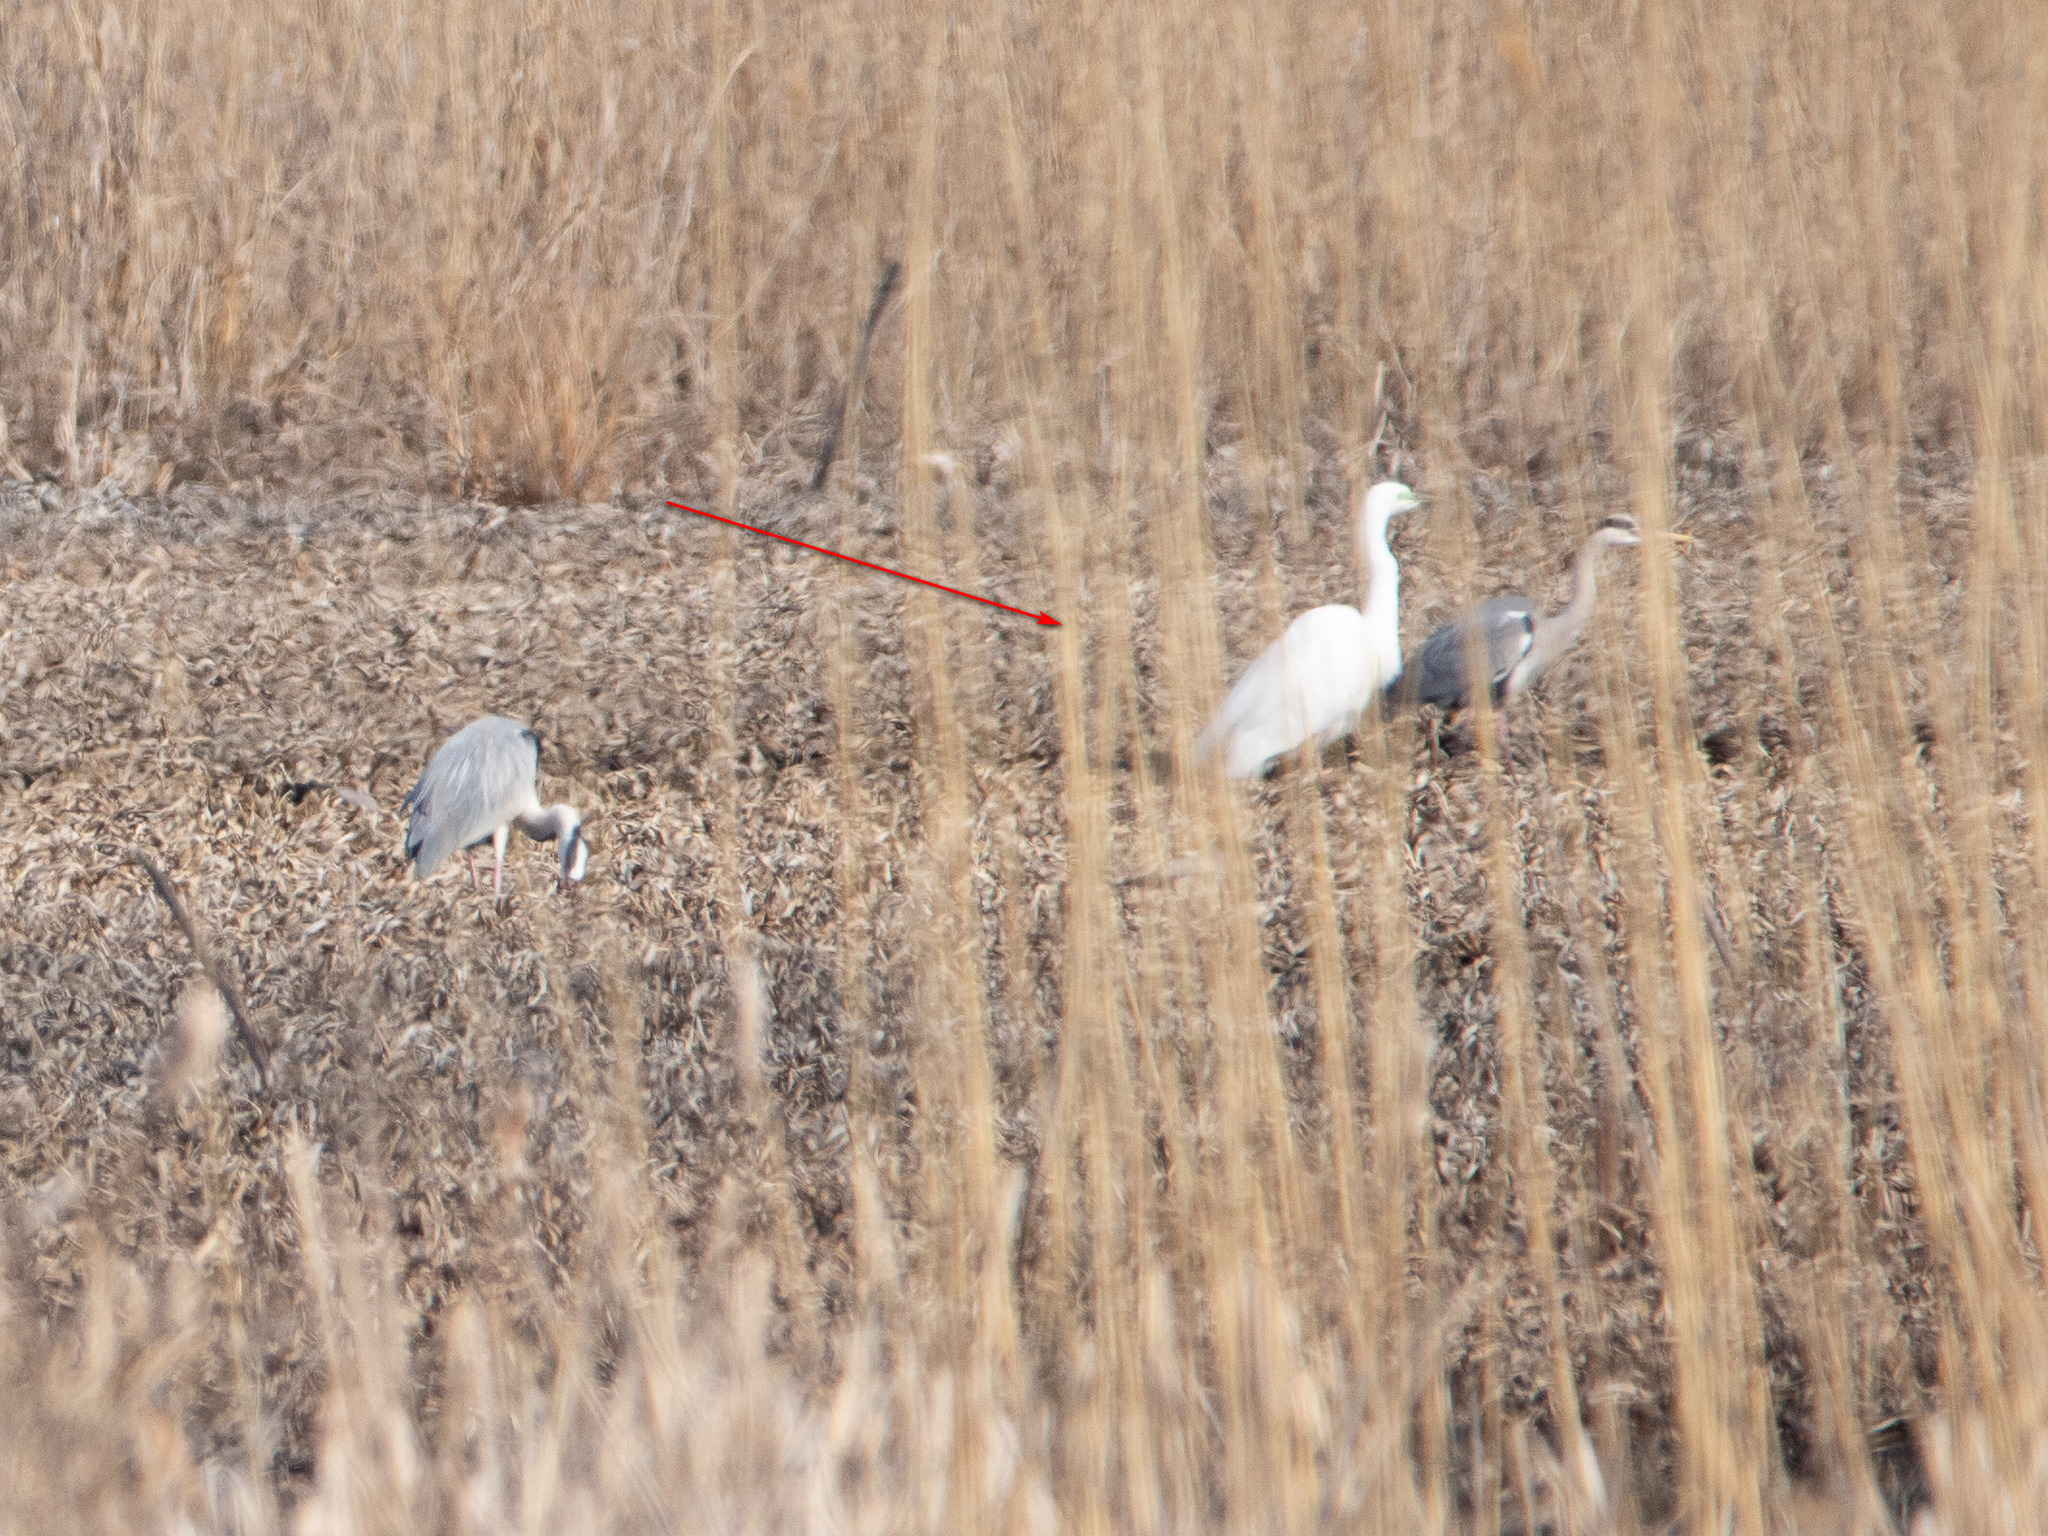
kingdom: Animalia
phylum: Chordata
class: Aves
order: Pelecaniformes
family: Ardeidae
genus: Ardea
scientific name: Ardea alba
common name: Great egret
